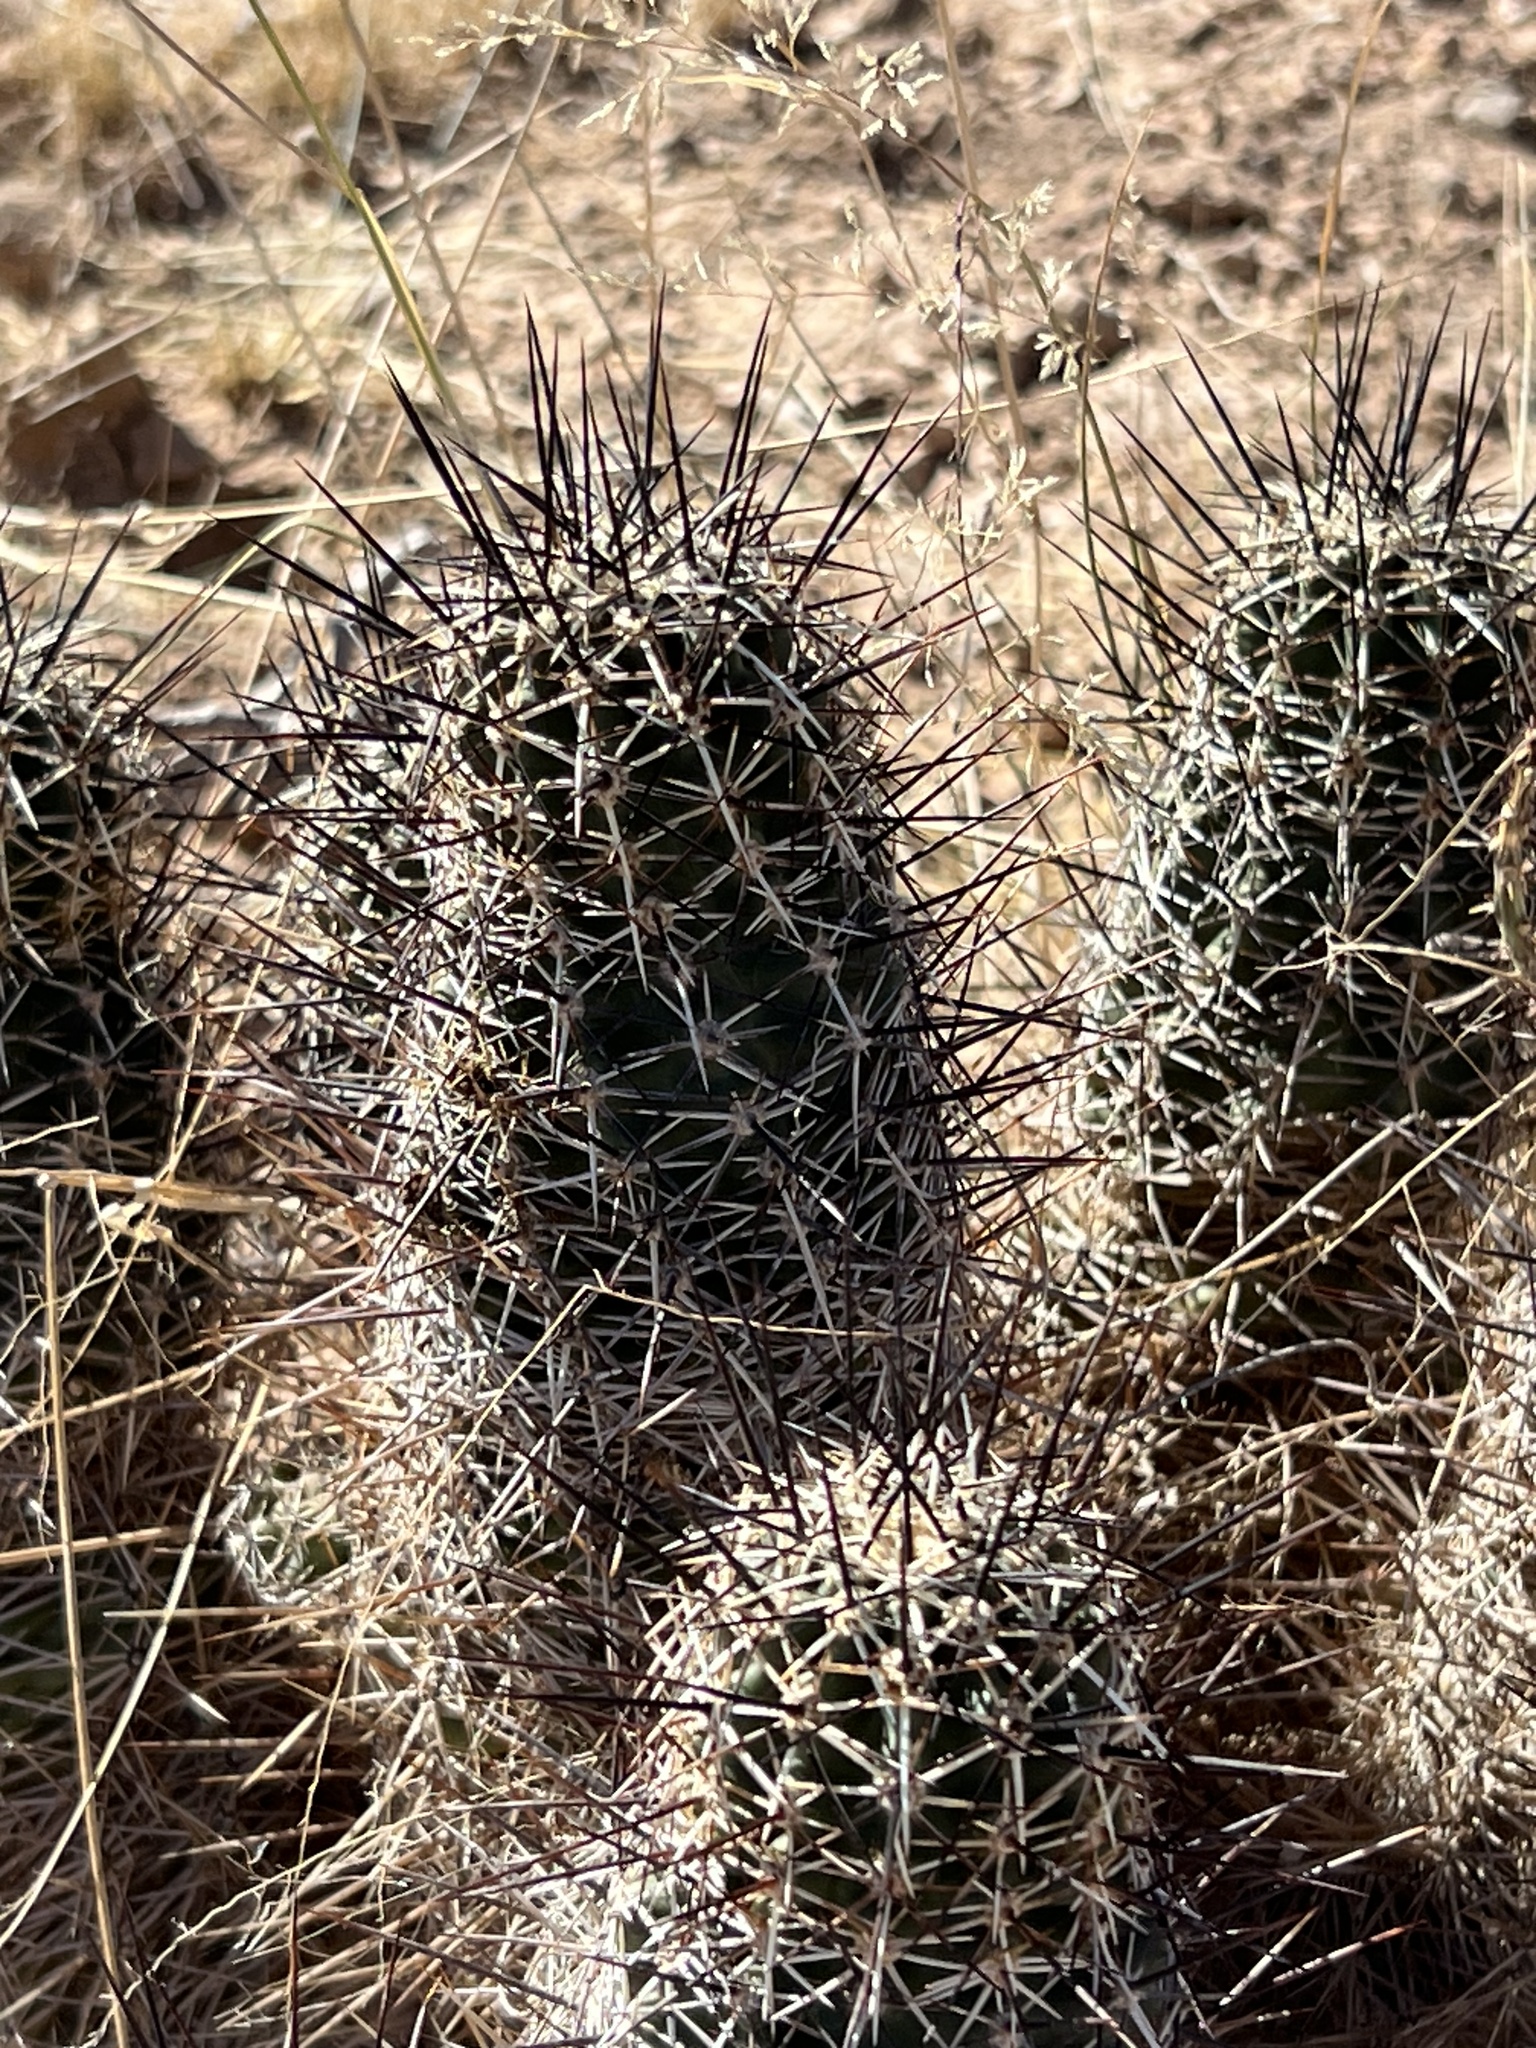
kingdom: Plantae
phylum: Tracheophyta
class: Magnoliopsida
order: Caryophyllales
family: Cactaceae
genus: Echinocereus
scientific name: Echinocereus fendleri
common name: Fendler's hedgehog cactus
